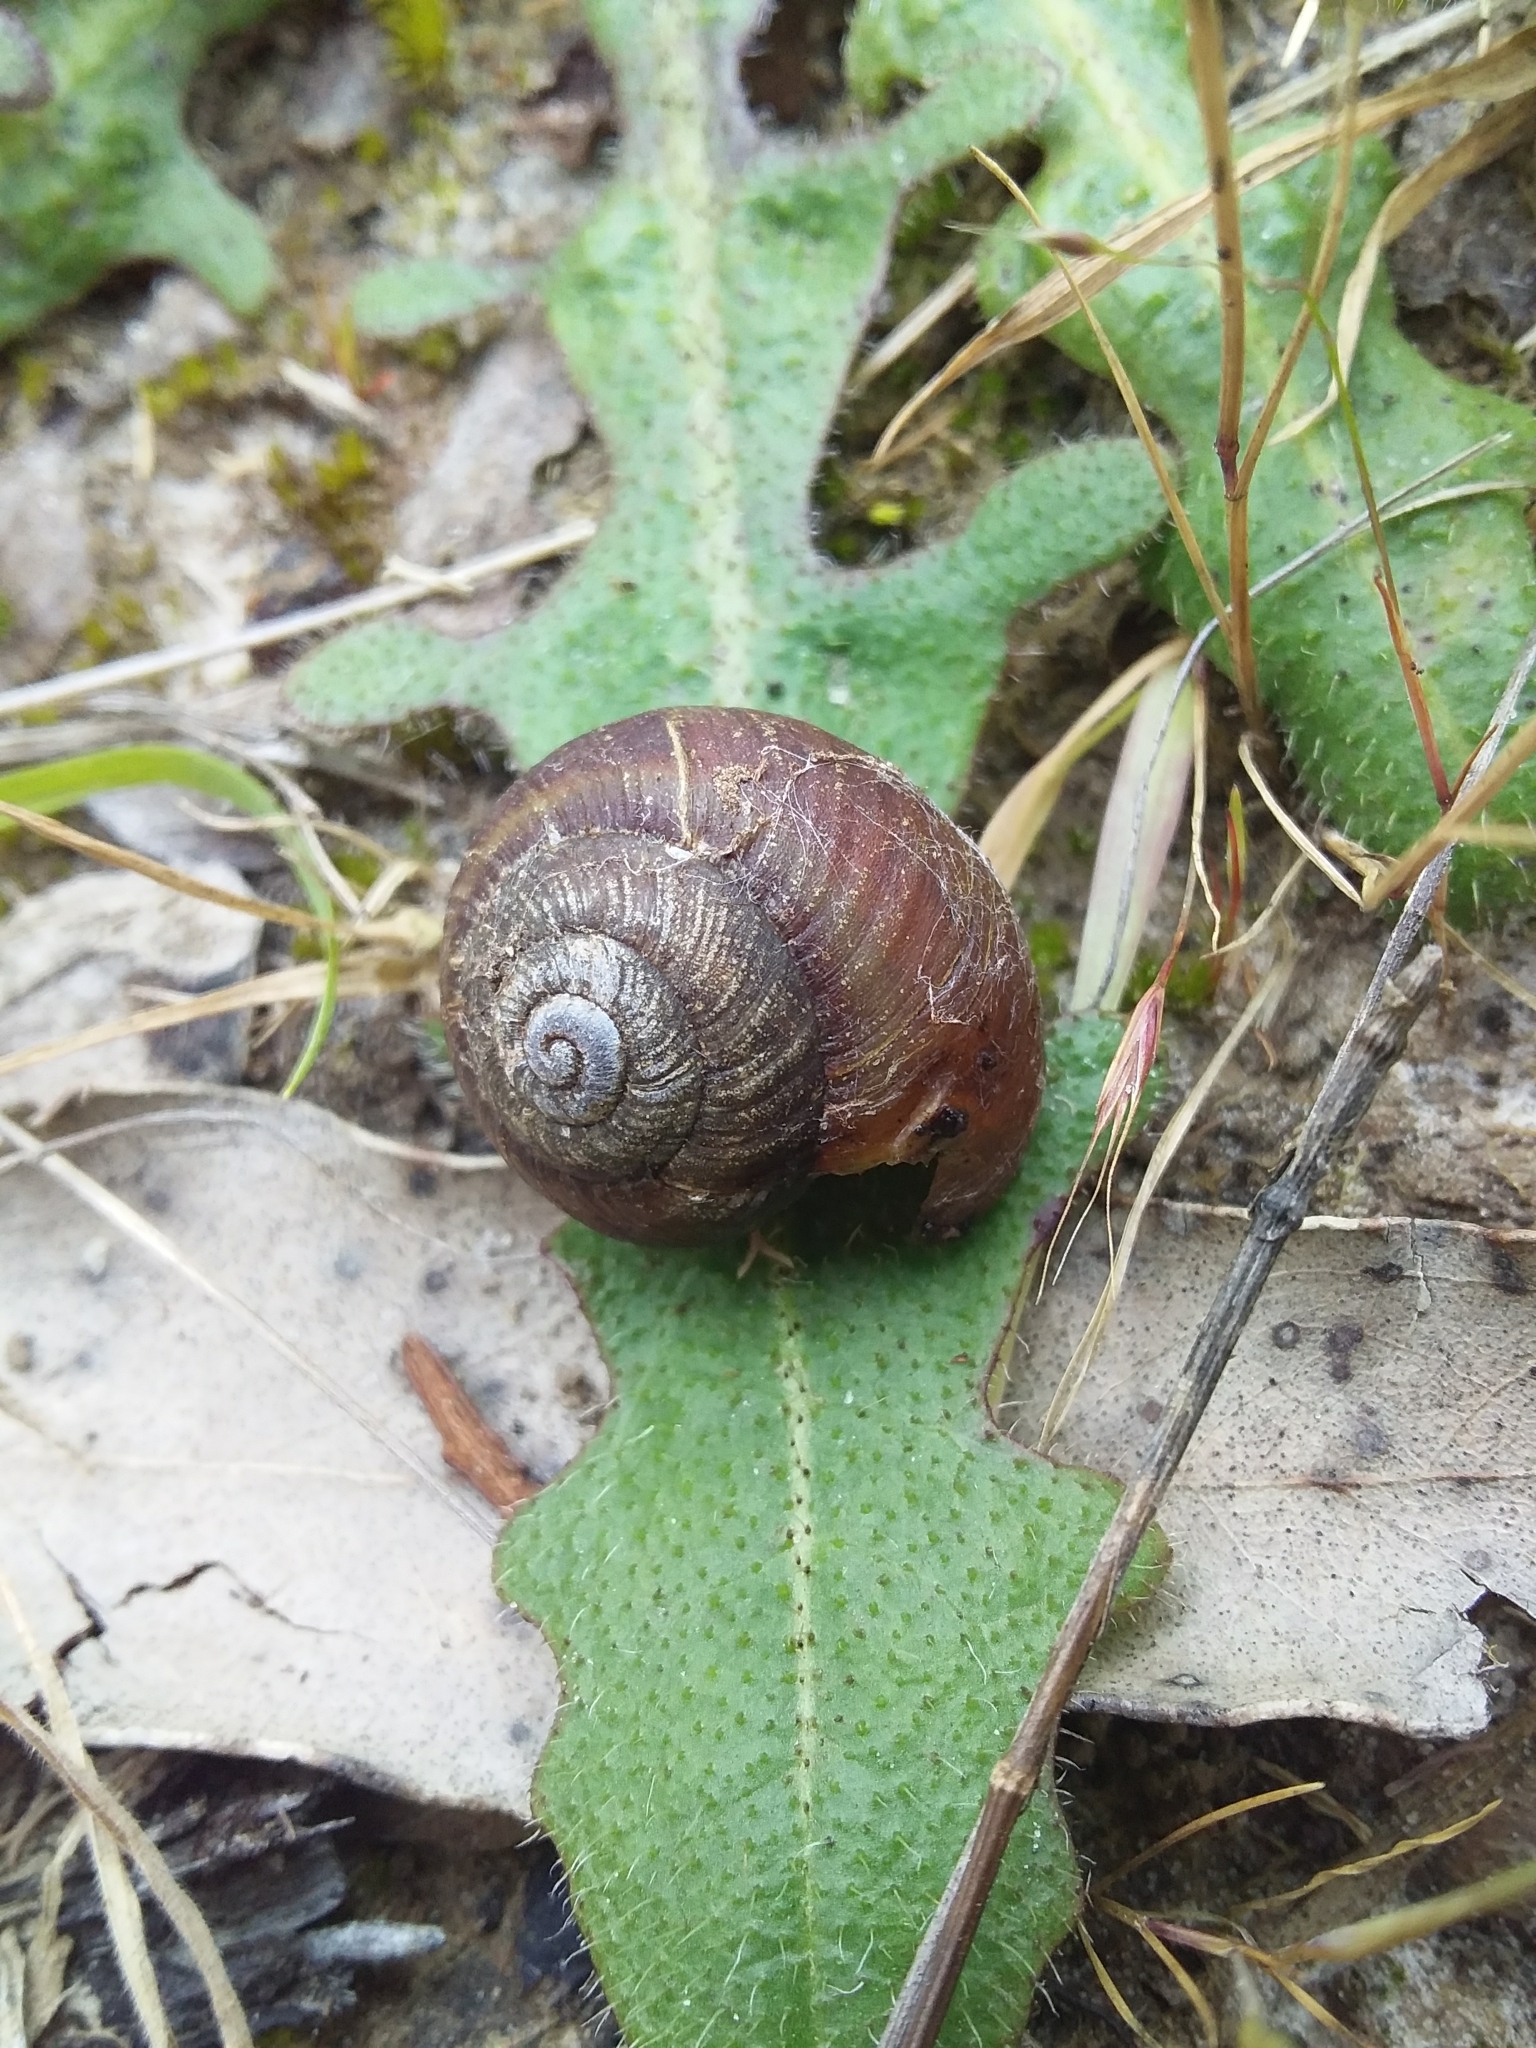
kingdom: Animalia
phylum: Mollusca
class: Gastropoda
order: Stylommatophora
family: Camaenidae
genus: Cupedora
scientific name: Cupedora cassandra
